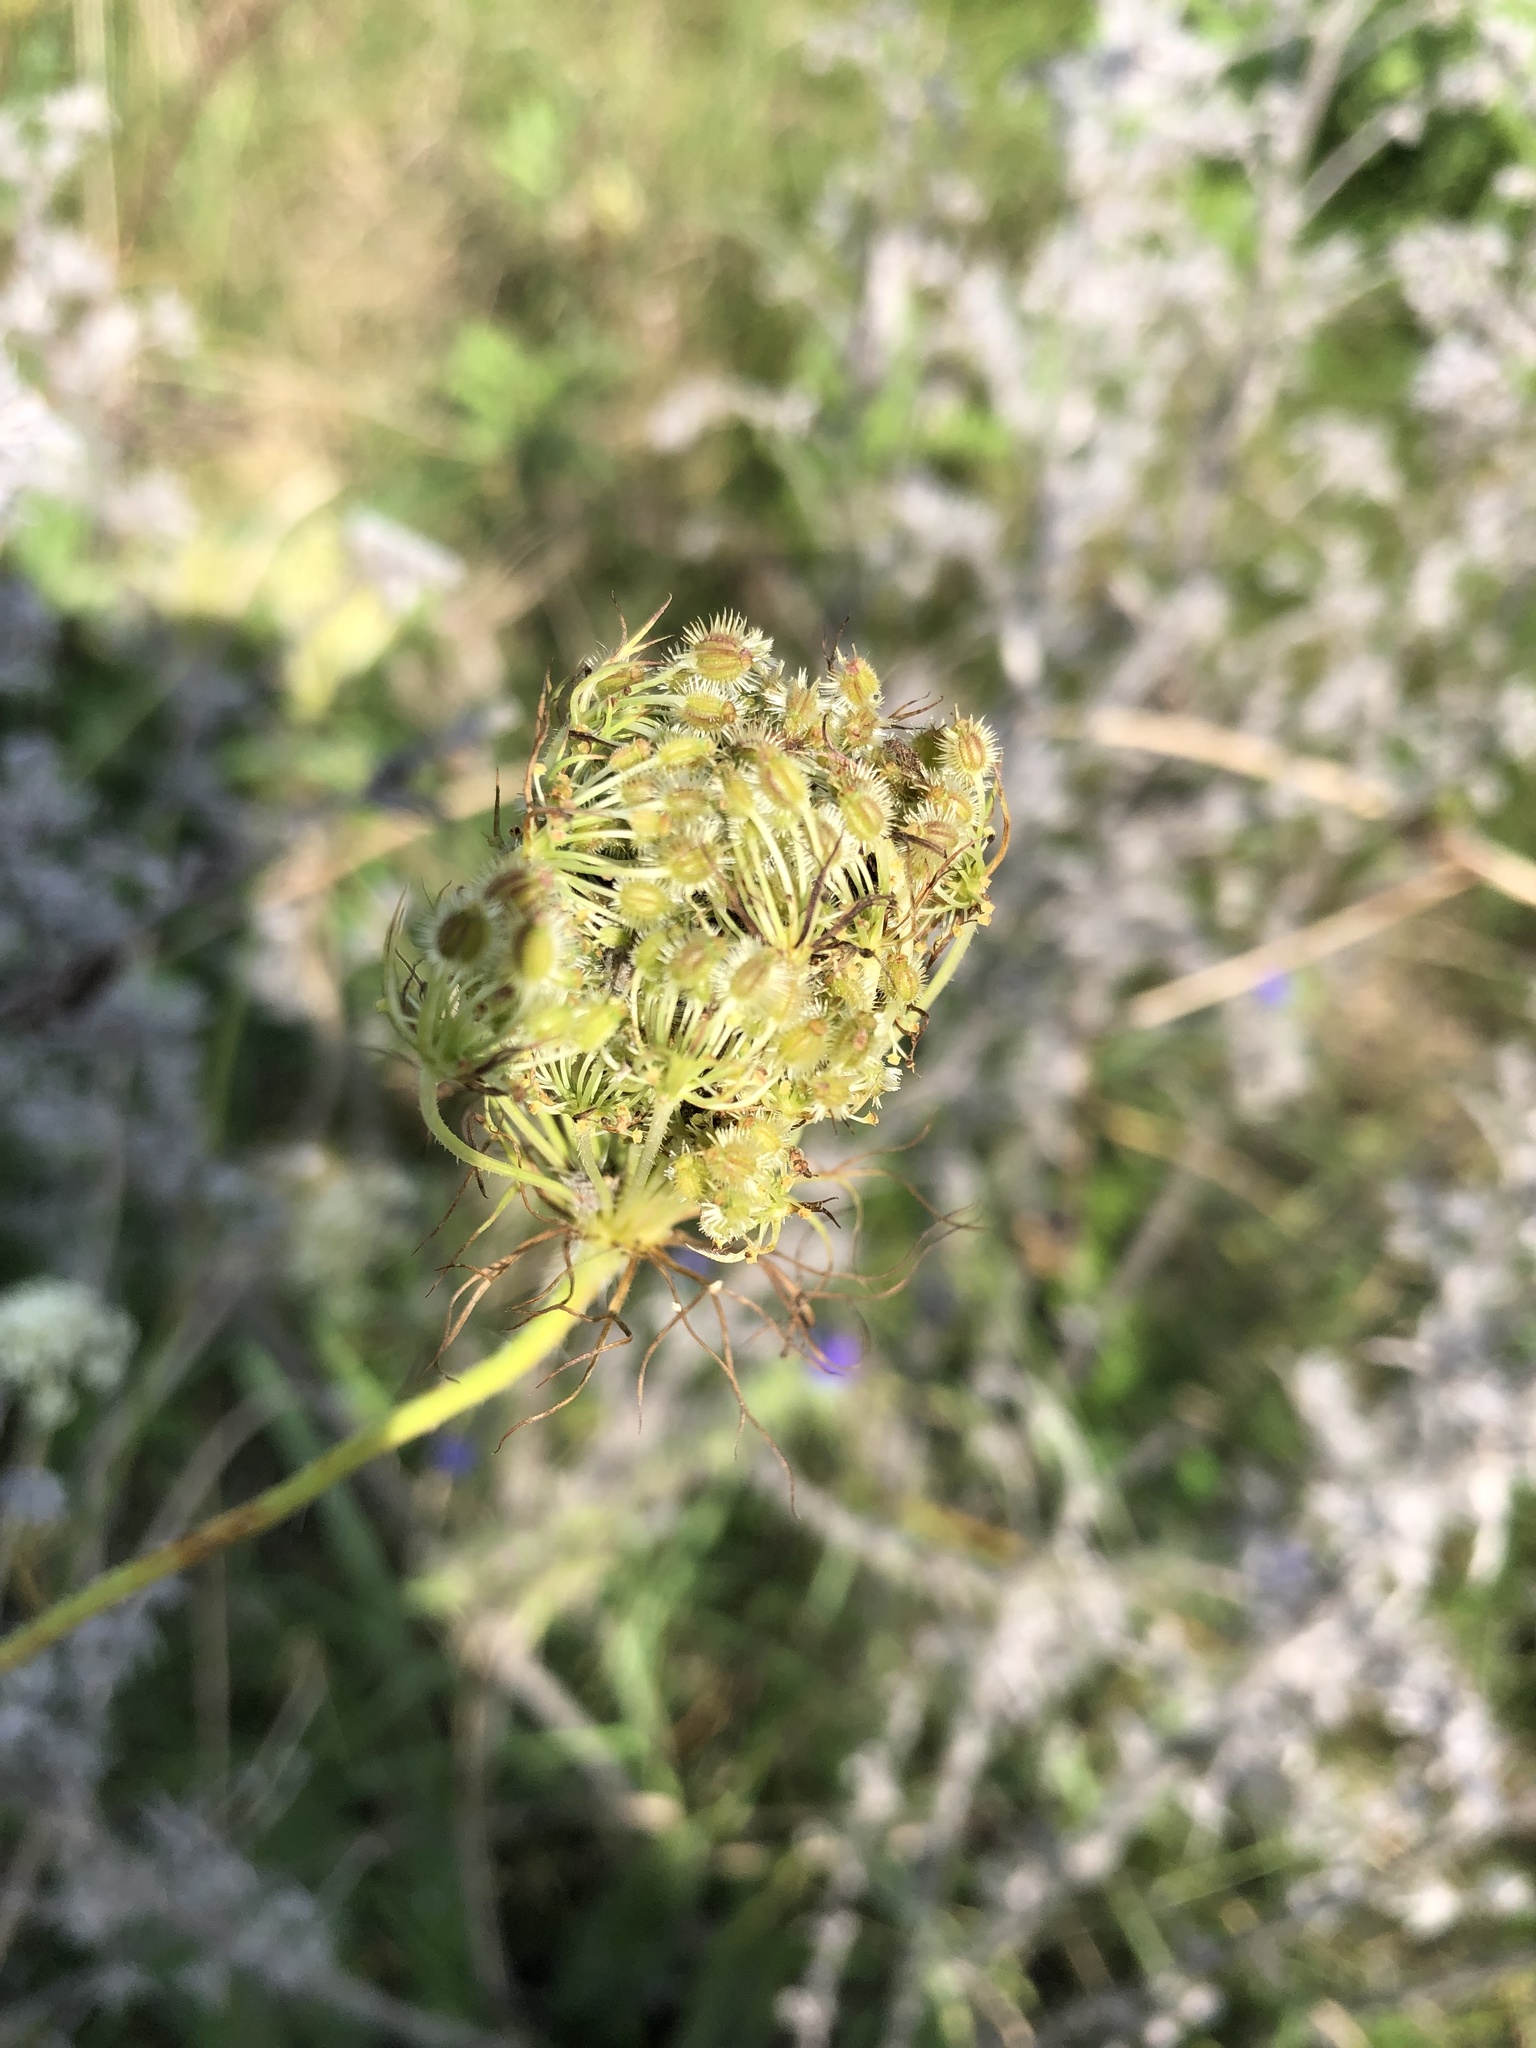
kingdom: Plantae
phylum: Tracheophyta
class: Magnoliopsida
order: Apiales
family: Apiaceae
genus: Daucus
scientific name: Daucus carota
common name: Wild carrot
